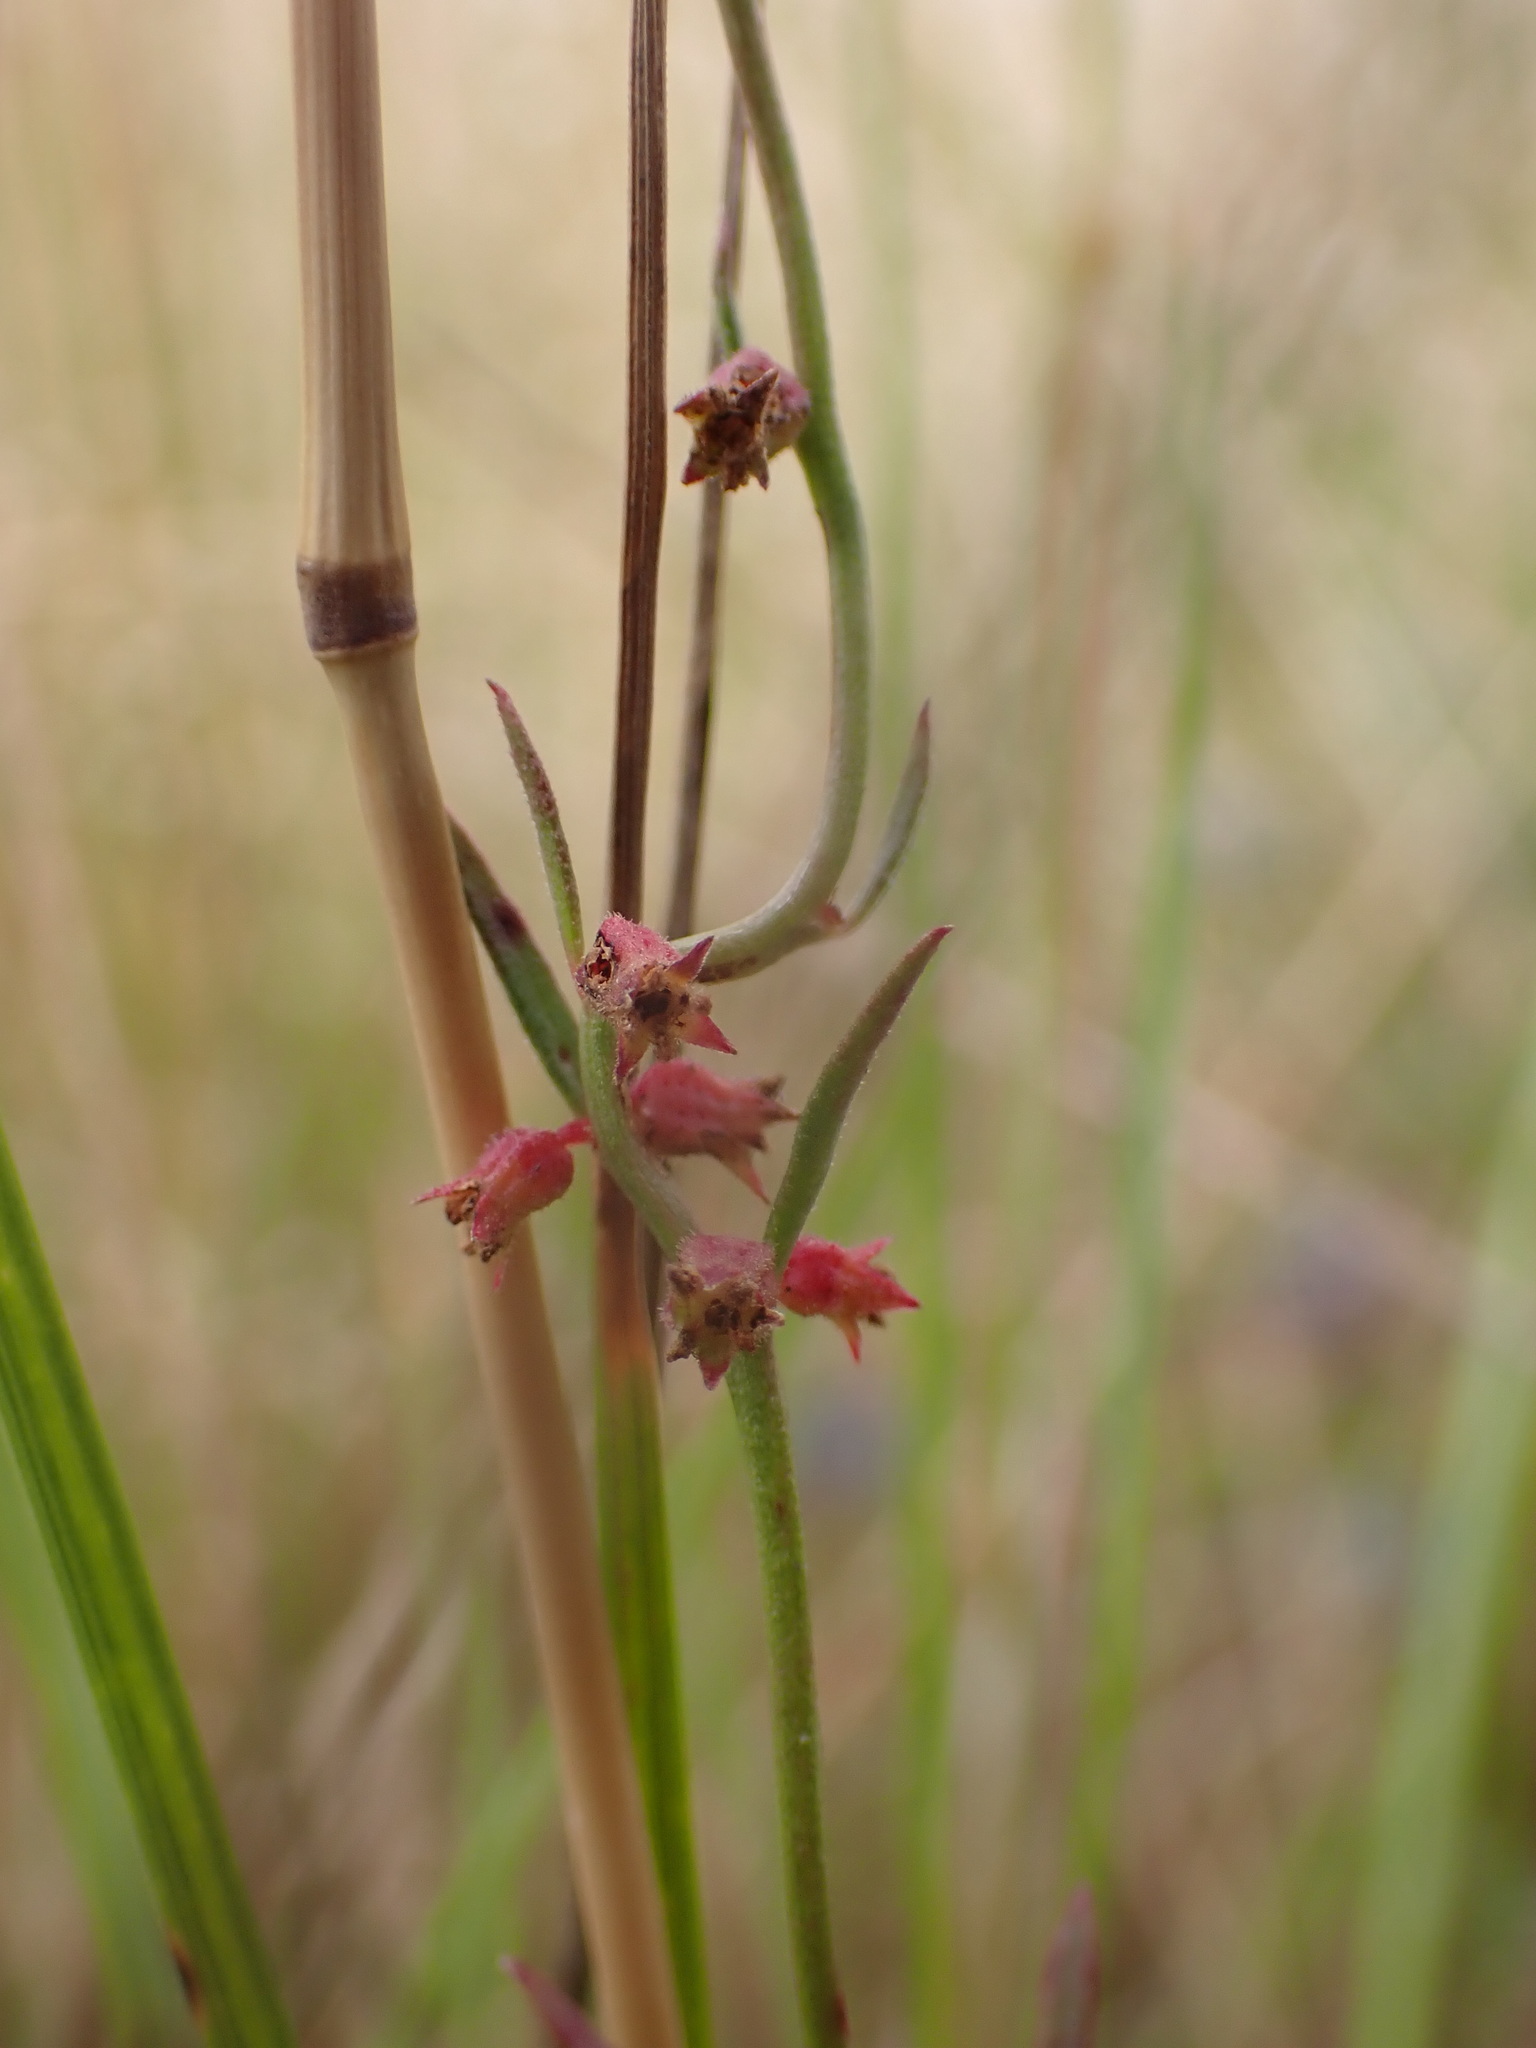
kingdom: Plantae
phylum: Tracheophyta
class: Magnoliopsida
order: Saxifragales
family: Haloragaceae
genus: Haloragis
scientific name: Haloragis heterophylla
